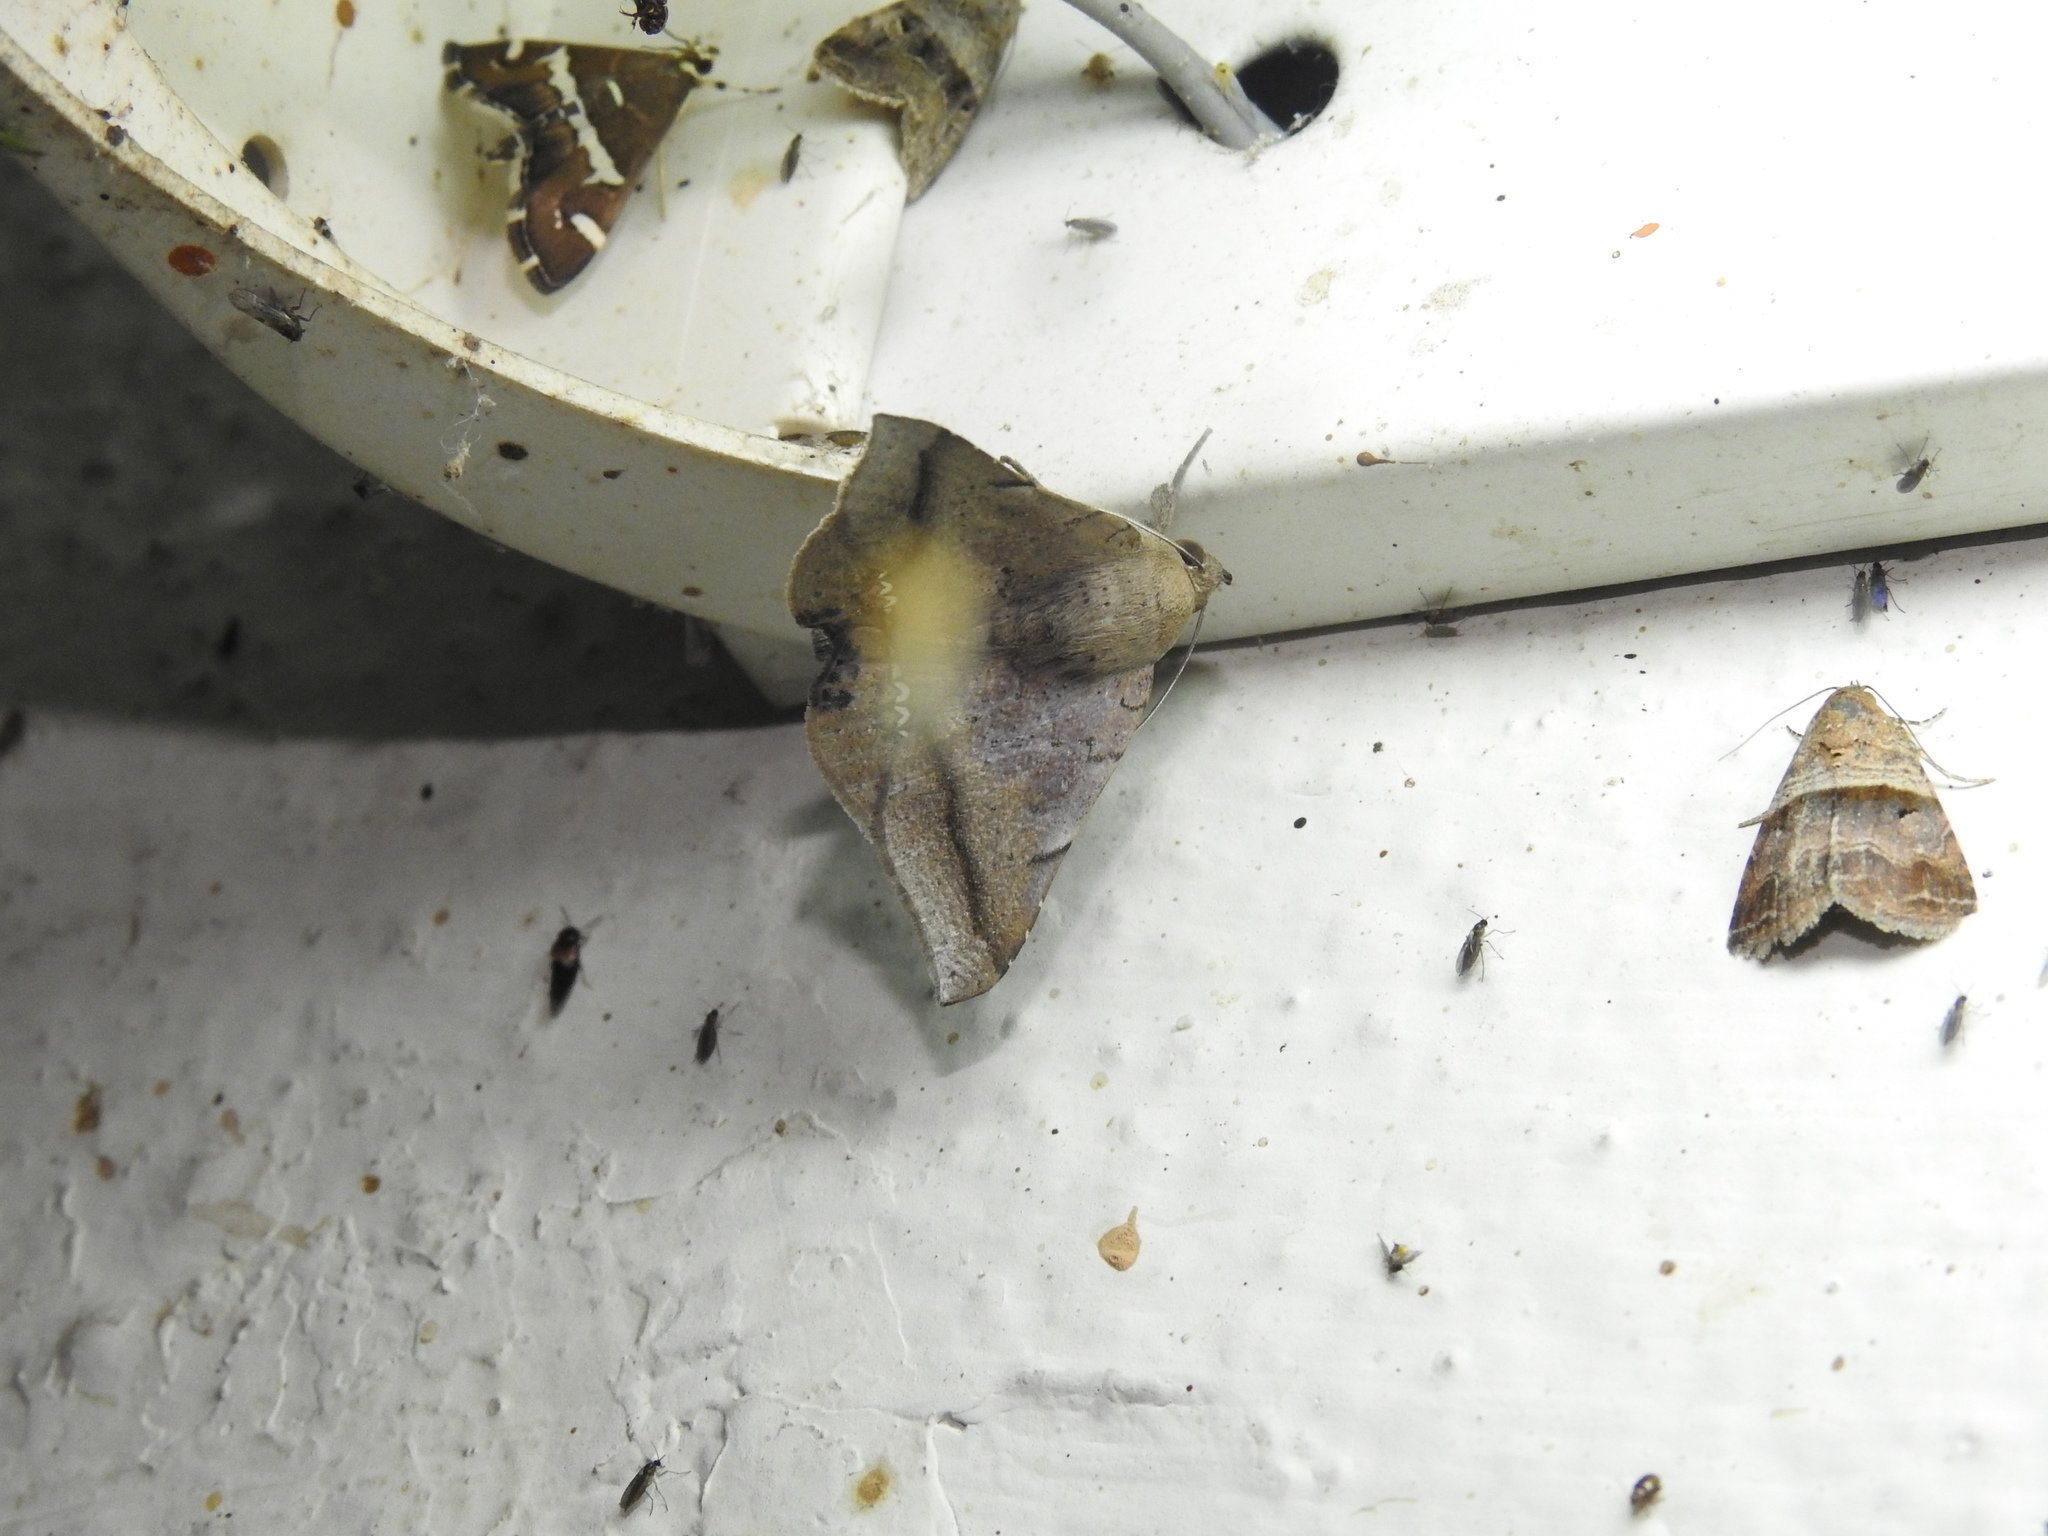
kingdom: Animalia
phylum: Arthropoda
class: Insecta
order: Lepidoptera
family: Erebidae
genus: Macaldenia
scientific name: Macaldenia palumba
